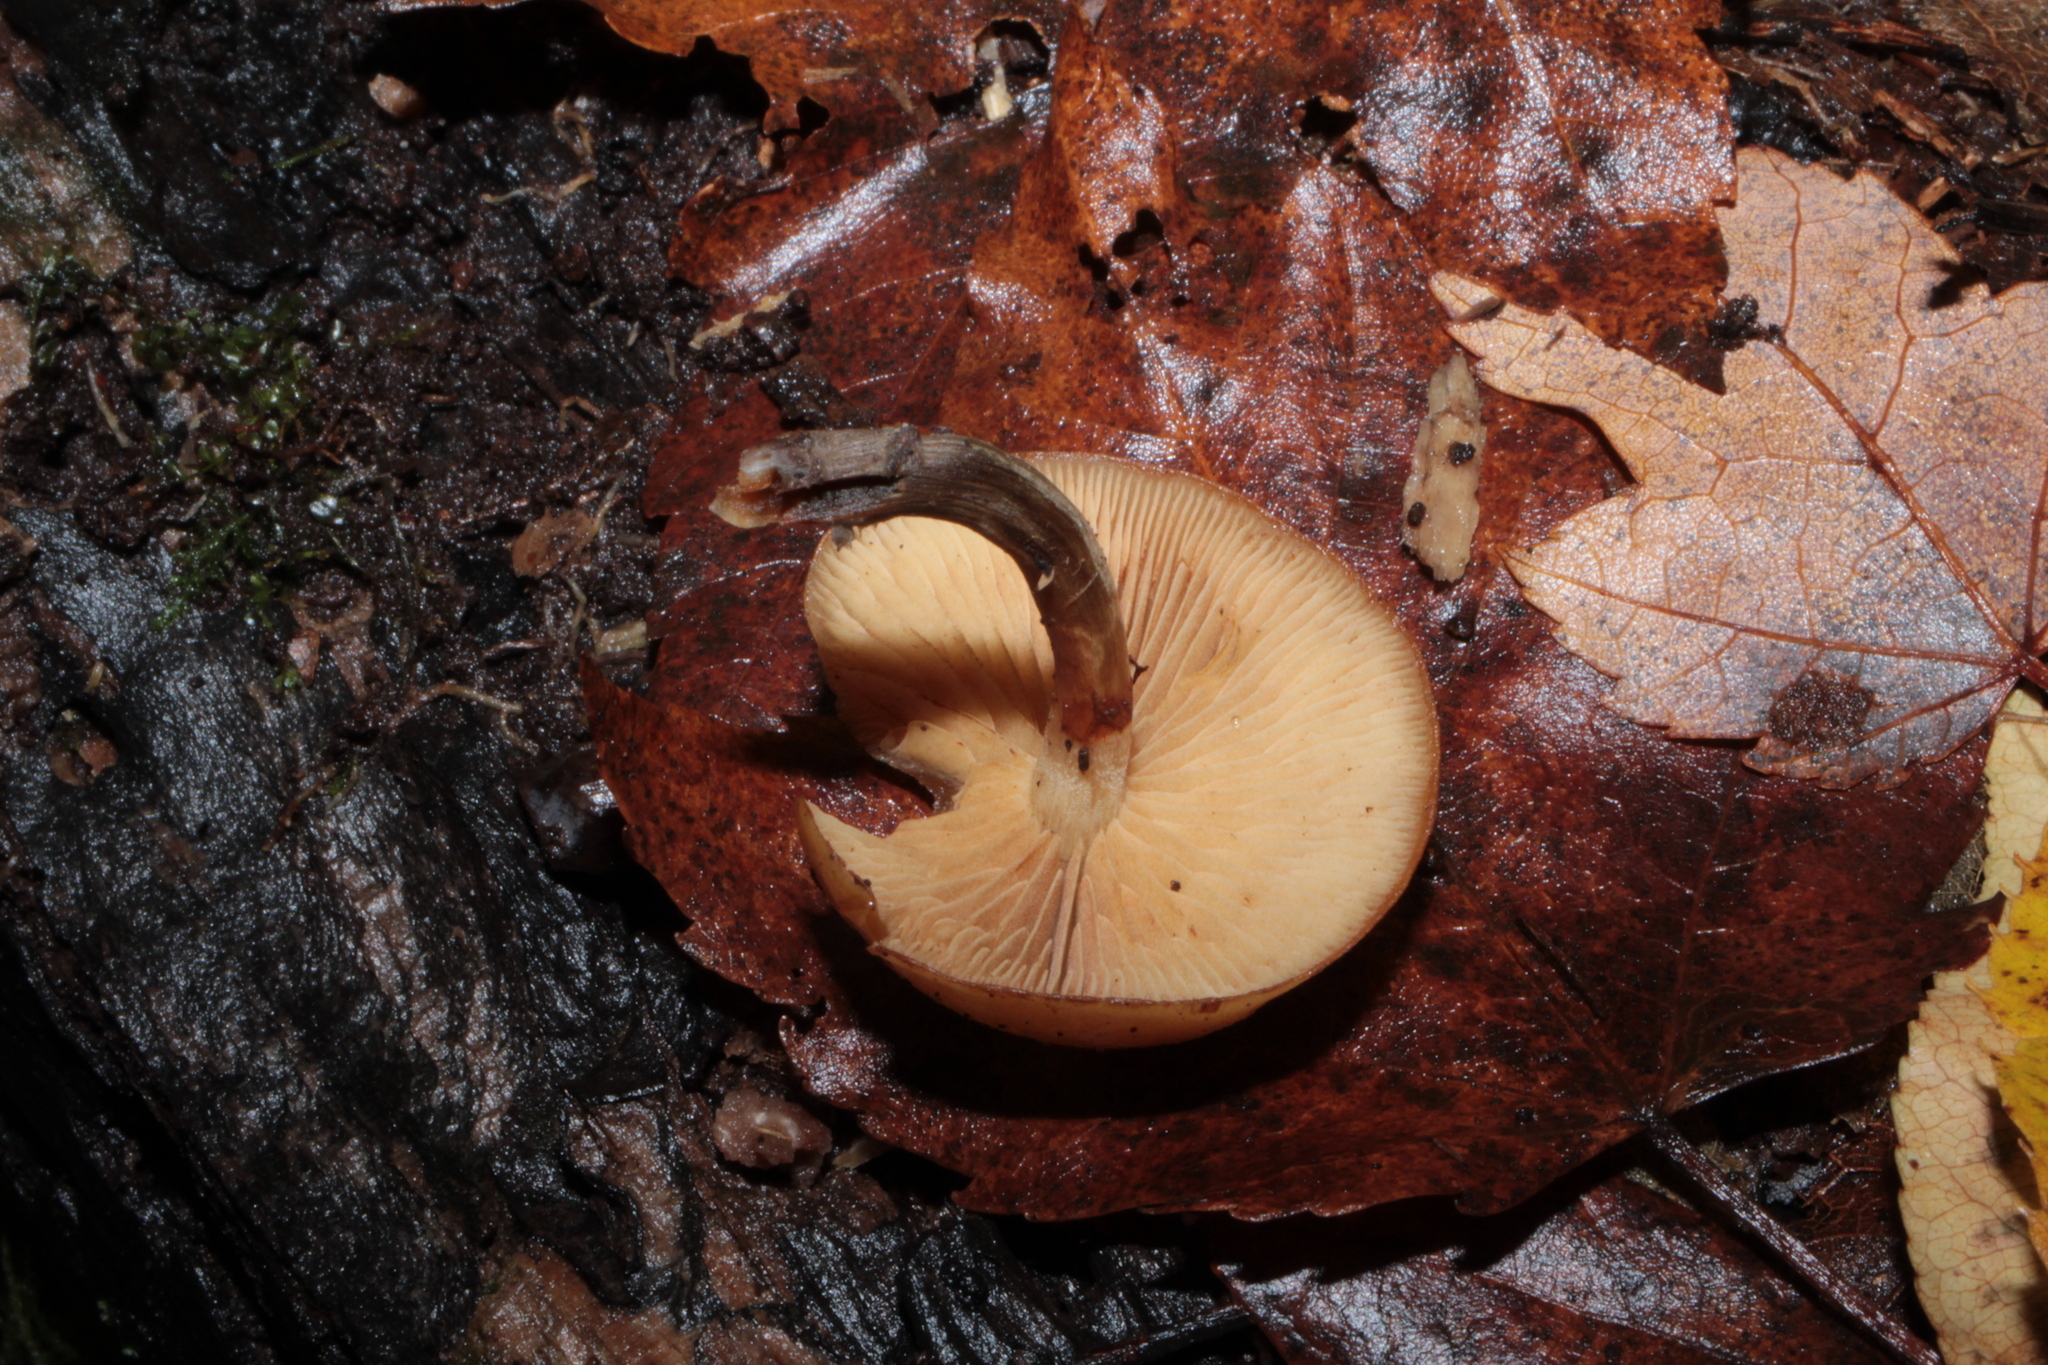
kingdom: Fungi
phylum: Basidiomycota
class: Agaricomycetes
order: Agaricales
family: Hymenogastraceae
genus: Galerina
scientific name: Galerina marginata
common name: Funeral bell
